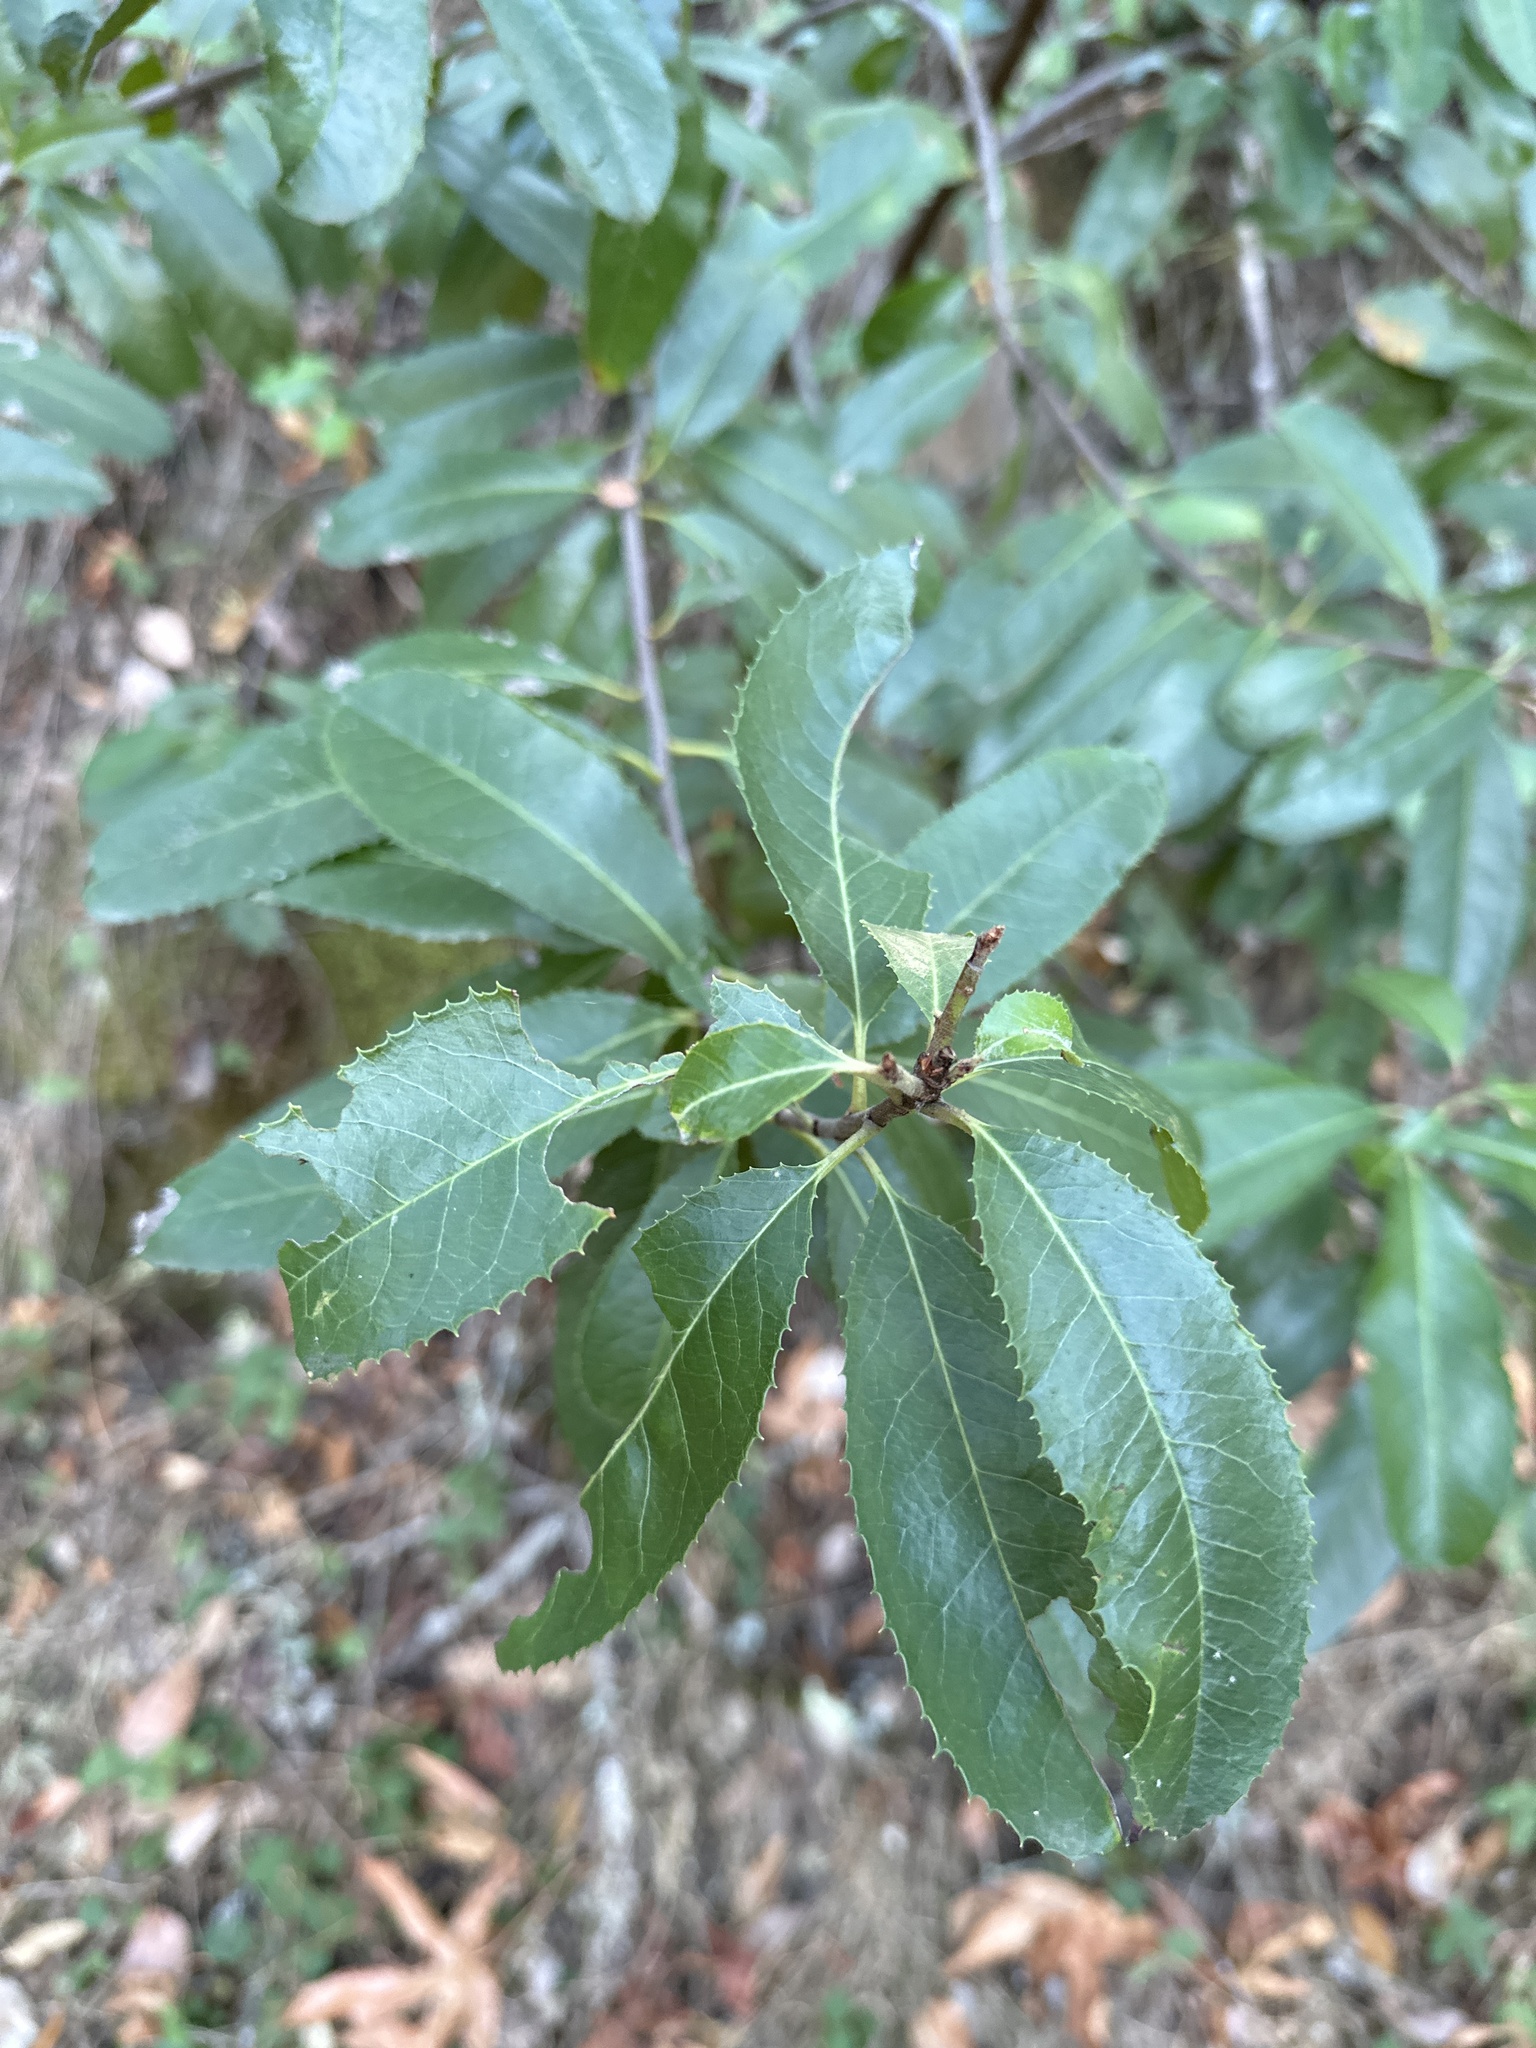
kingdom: Plantae
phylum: Tracheophyta
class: Magnoliopsida
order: Rosales
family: Rosaceae
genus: Heteromeles
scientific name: Heteromeles arbutifolia
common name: California-holly
